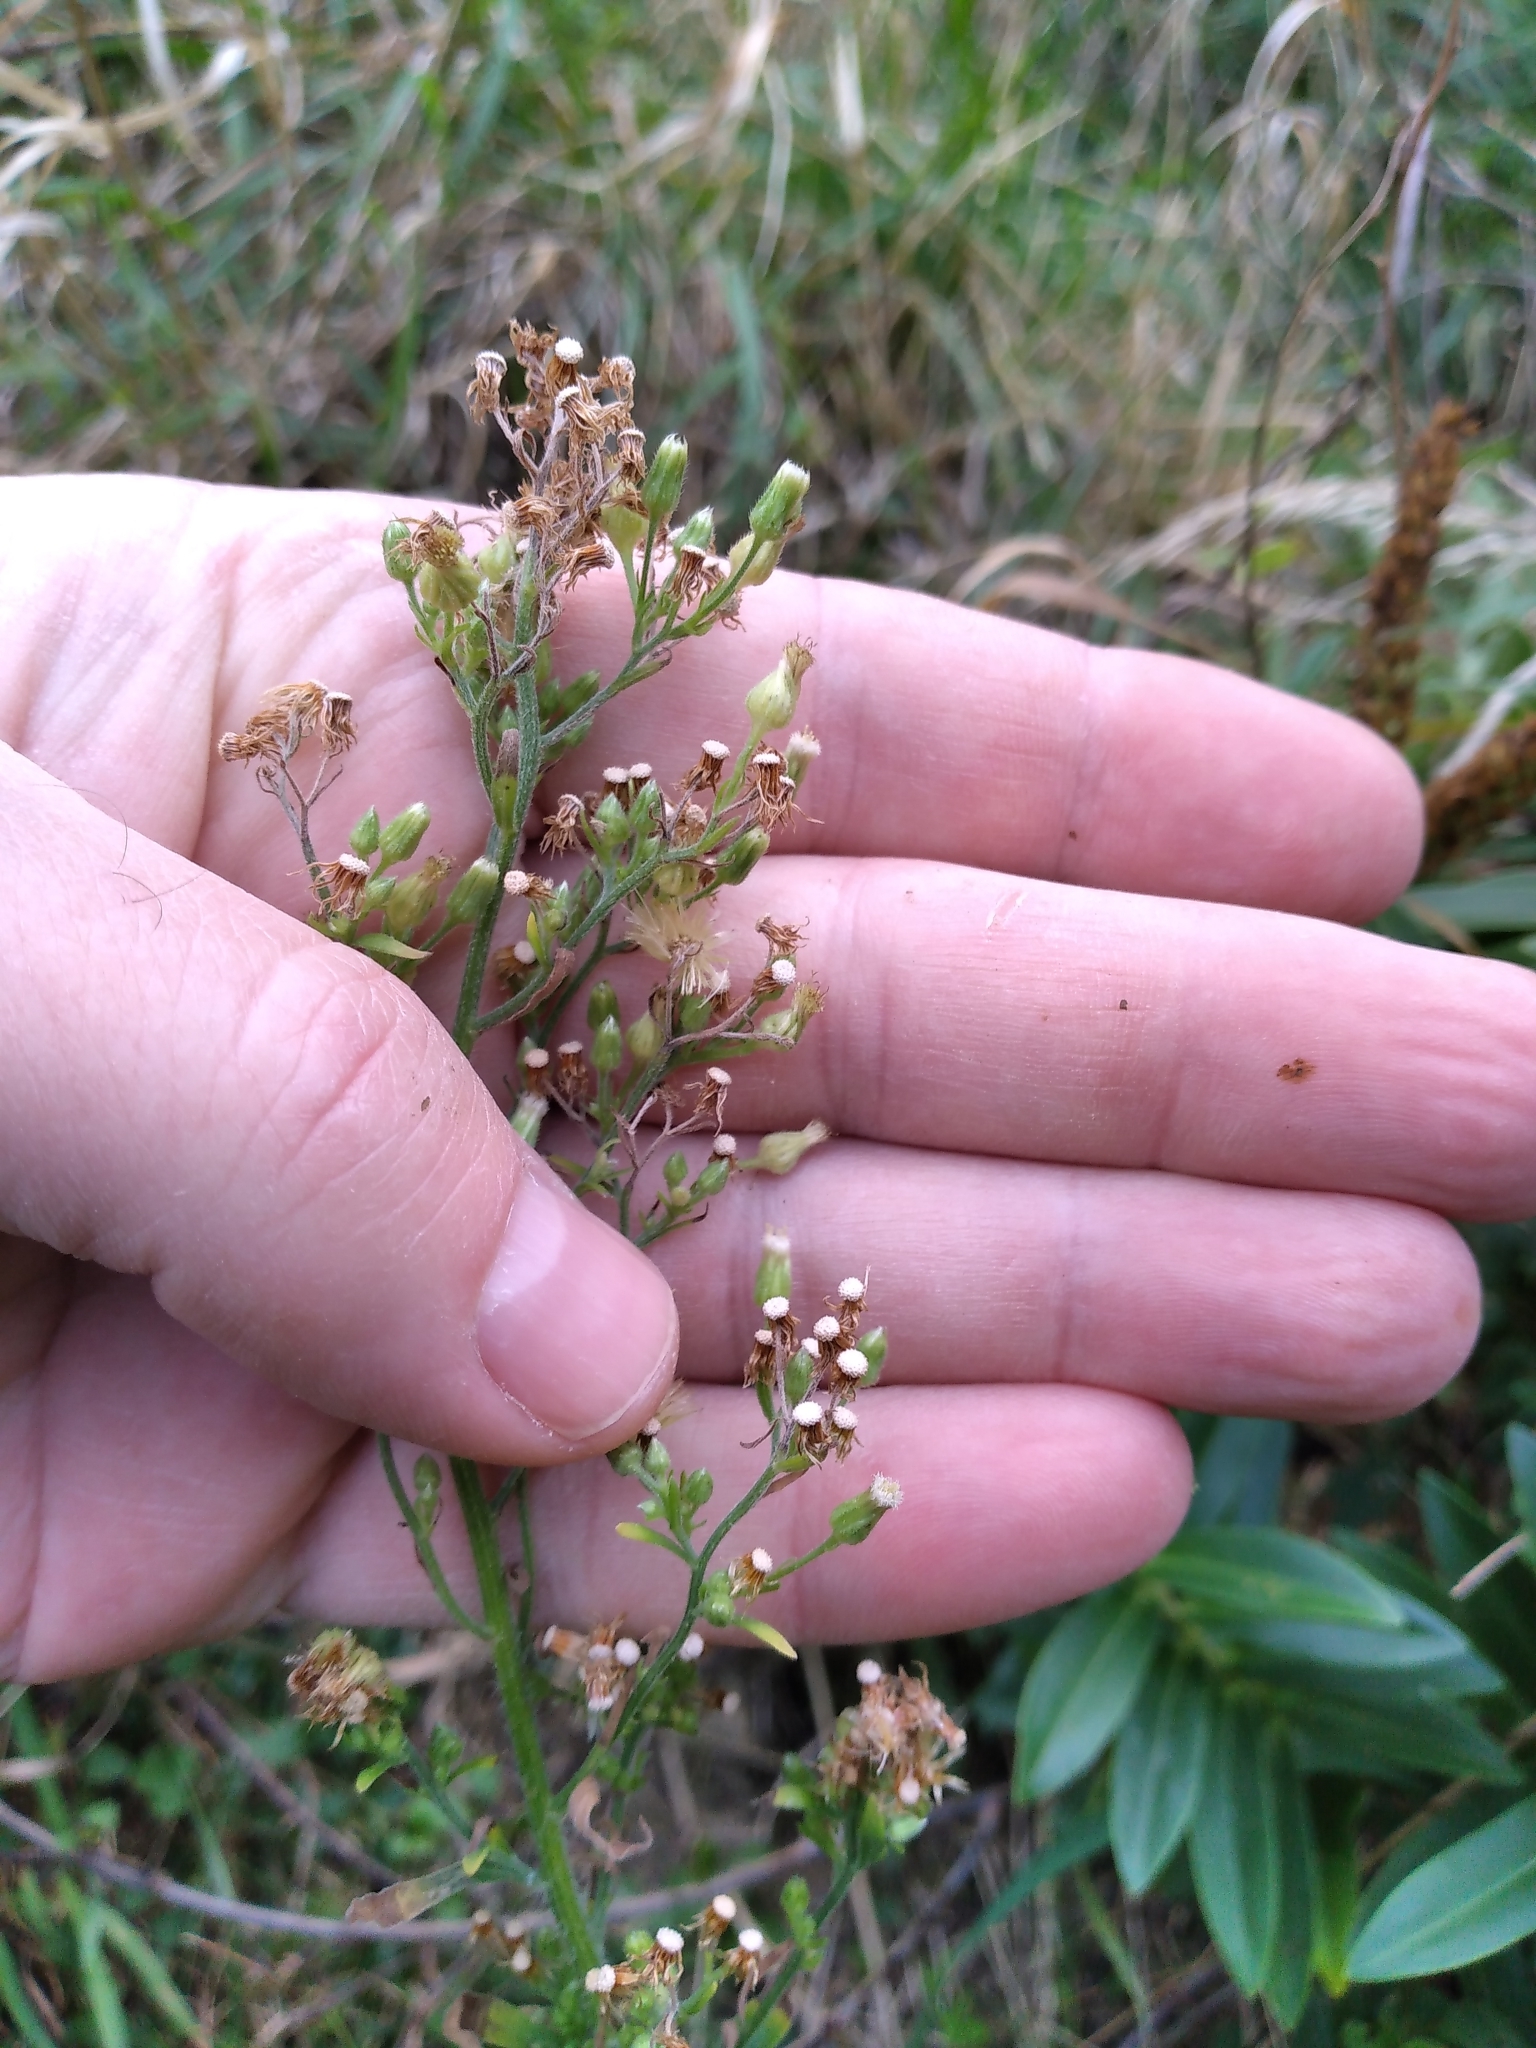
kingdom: Plantae
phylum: Tracheophyta
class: Magnoliopsida
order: Asterales
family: Asteraceae
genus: Erigeron
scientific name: Erigeron sumatrensis
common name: Daisy
